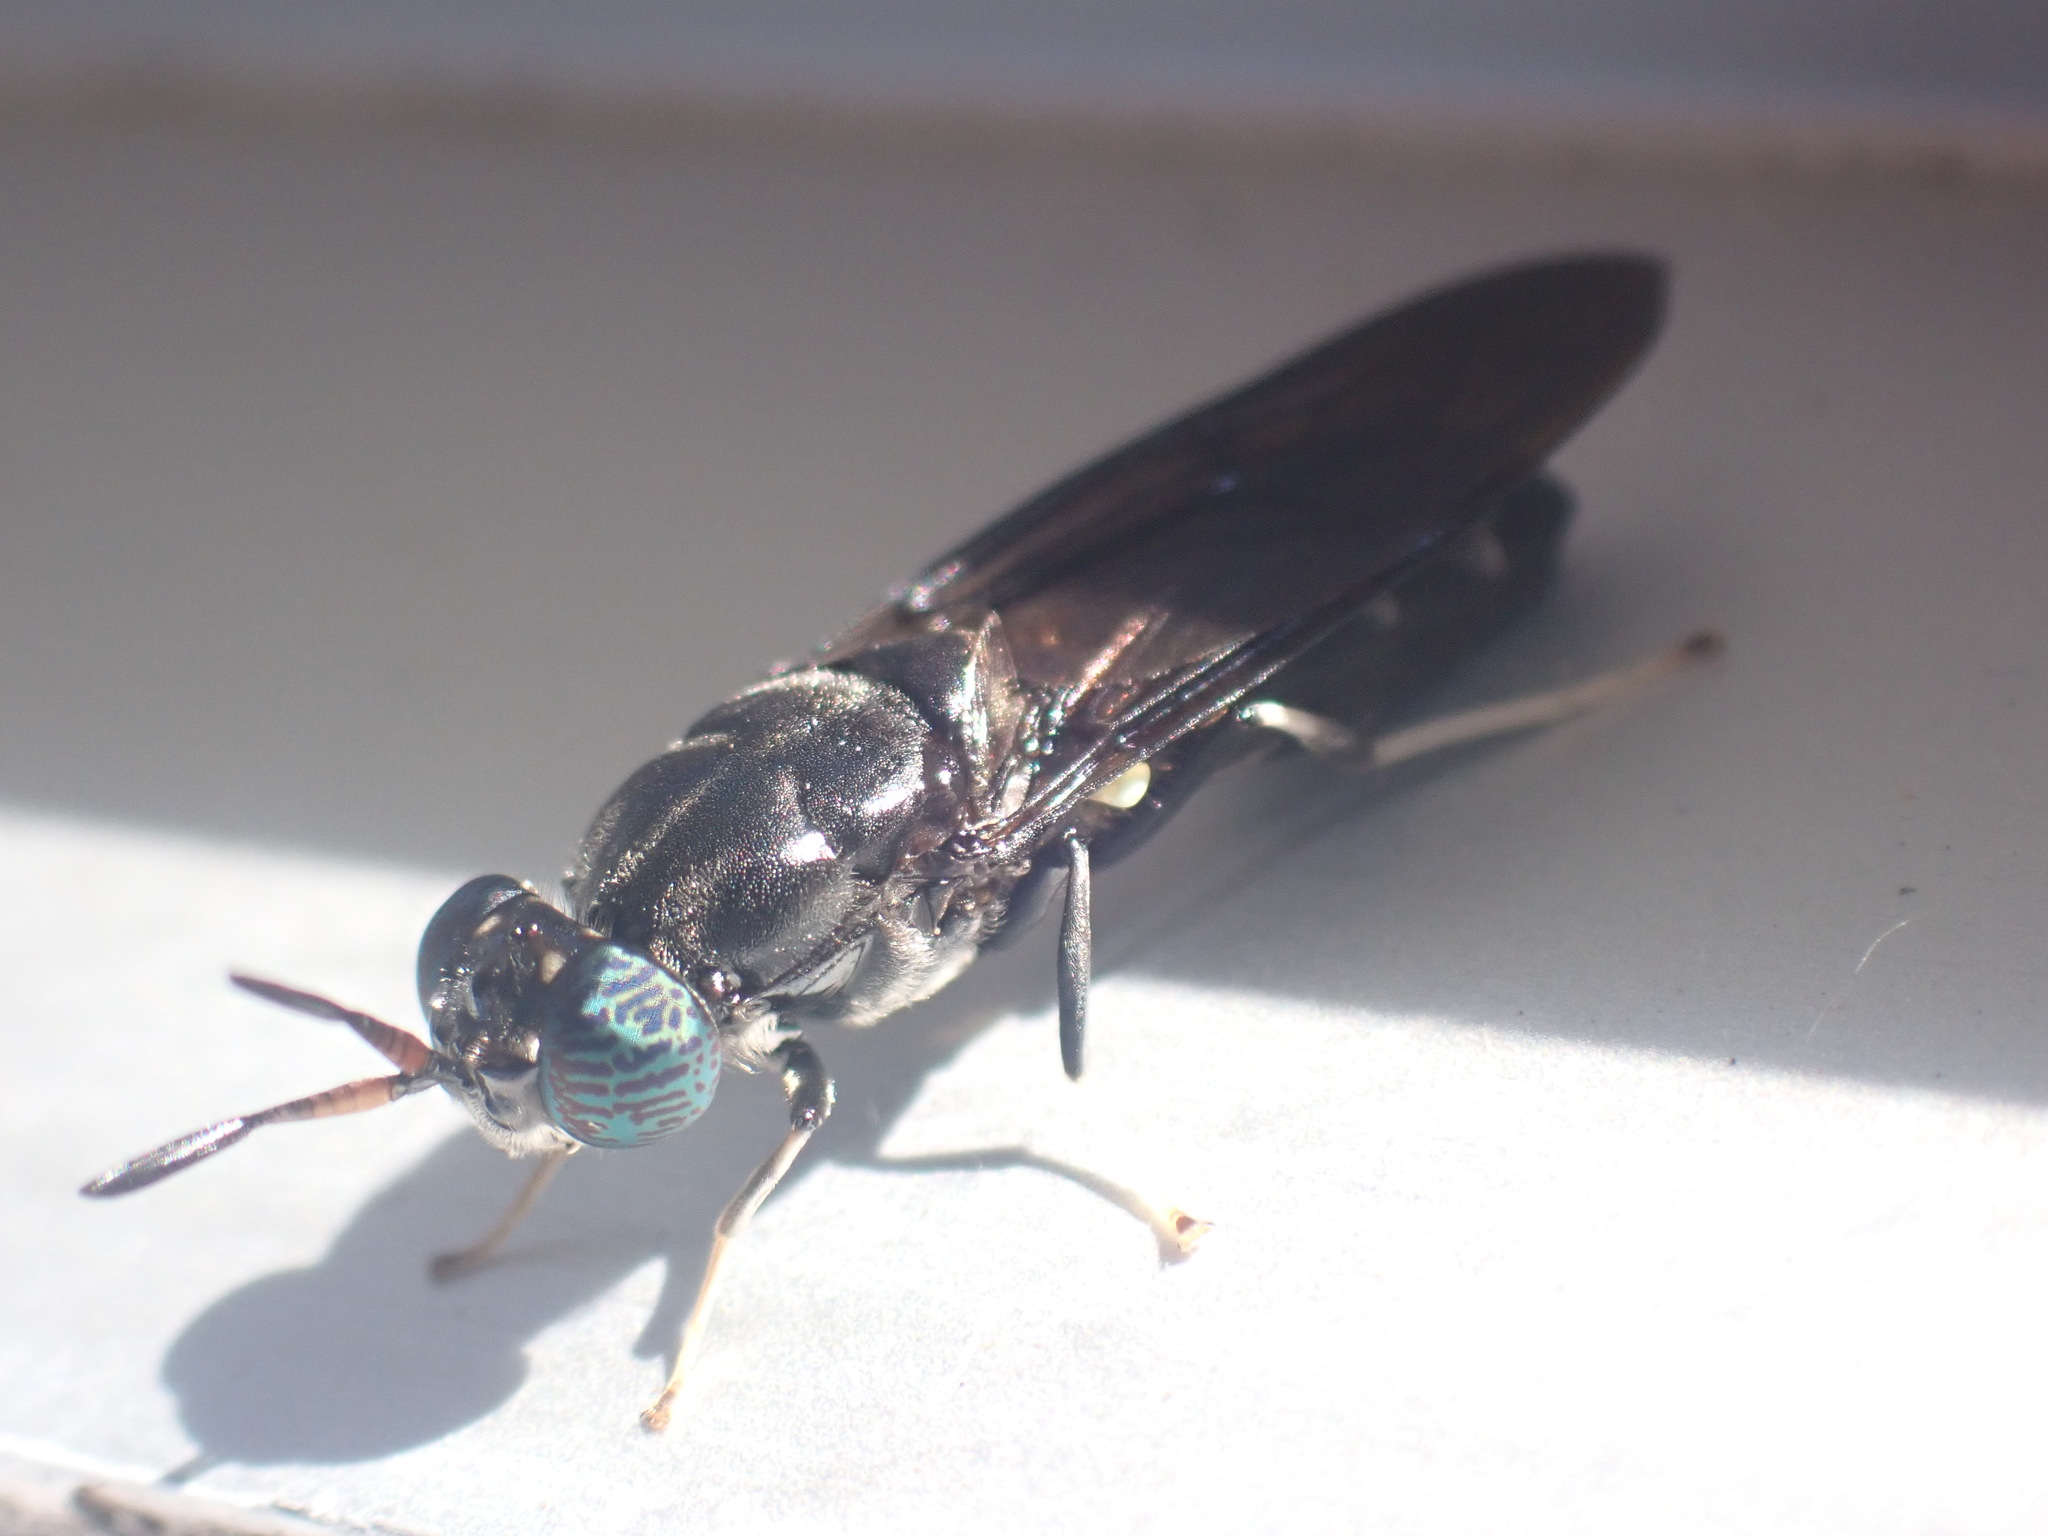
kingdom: Animalia
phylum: Arthropoda
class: Insecta
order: Diptera
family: Stratiomyidae
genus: Hermetia
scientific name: Hermetia illucens
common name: Black soldier fly
